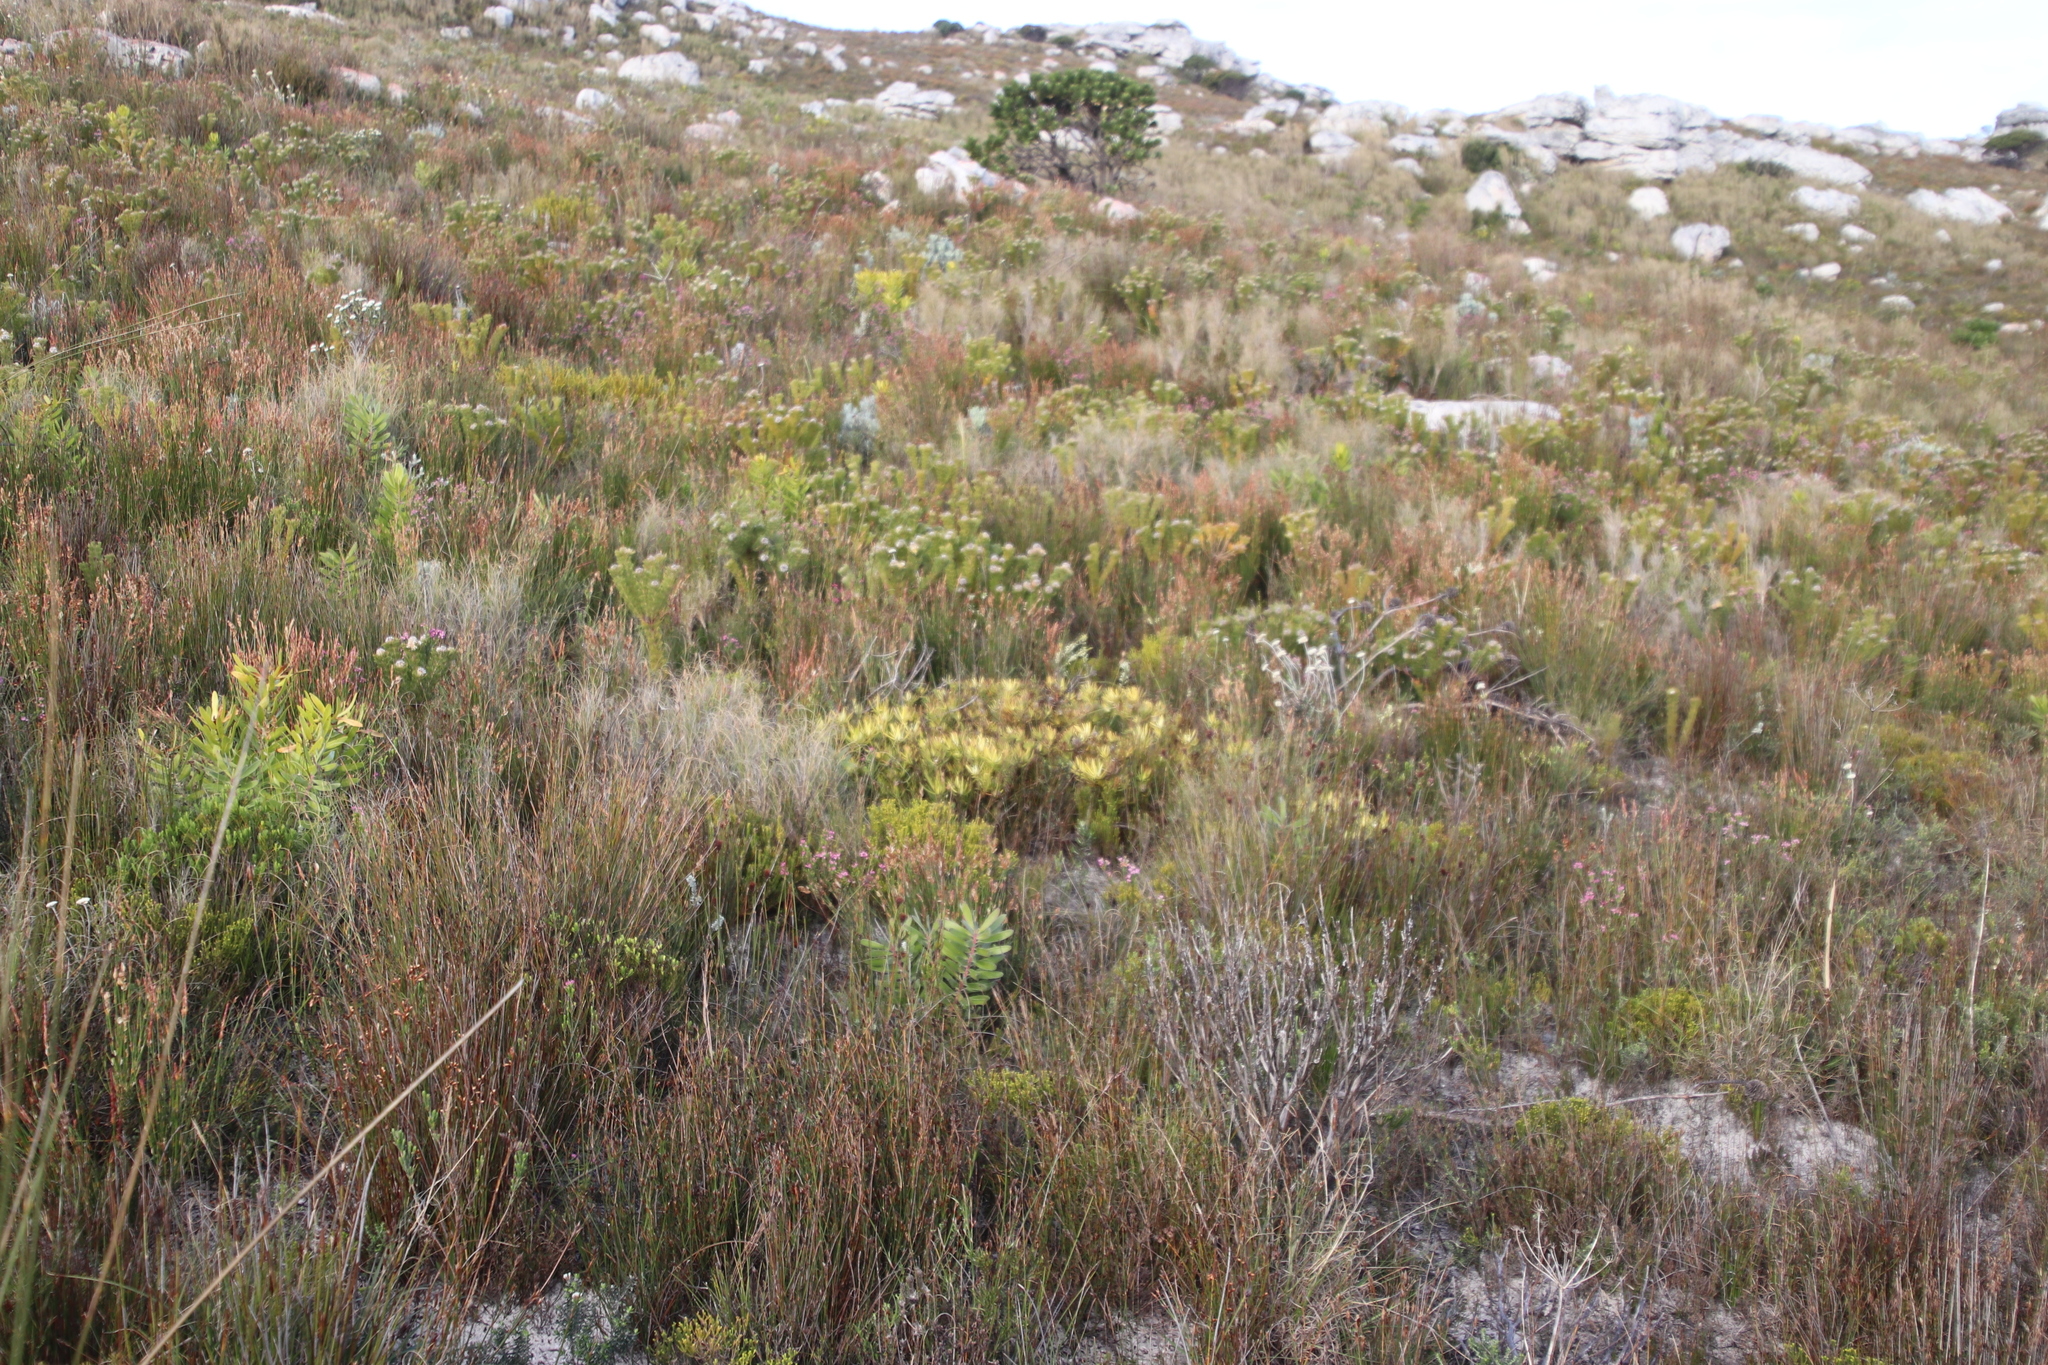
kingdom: Plantae
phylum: Tracheophyta
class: Magnoliopsida
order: Proteales
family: Proteaceae
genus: Leucadendron
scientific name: Leucadendron salignum
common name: Common sunshine conebush
